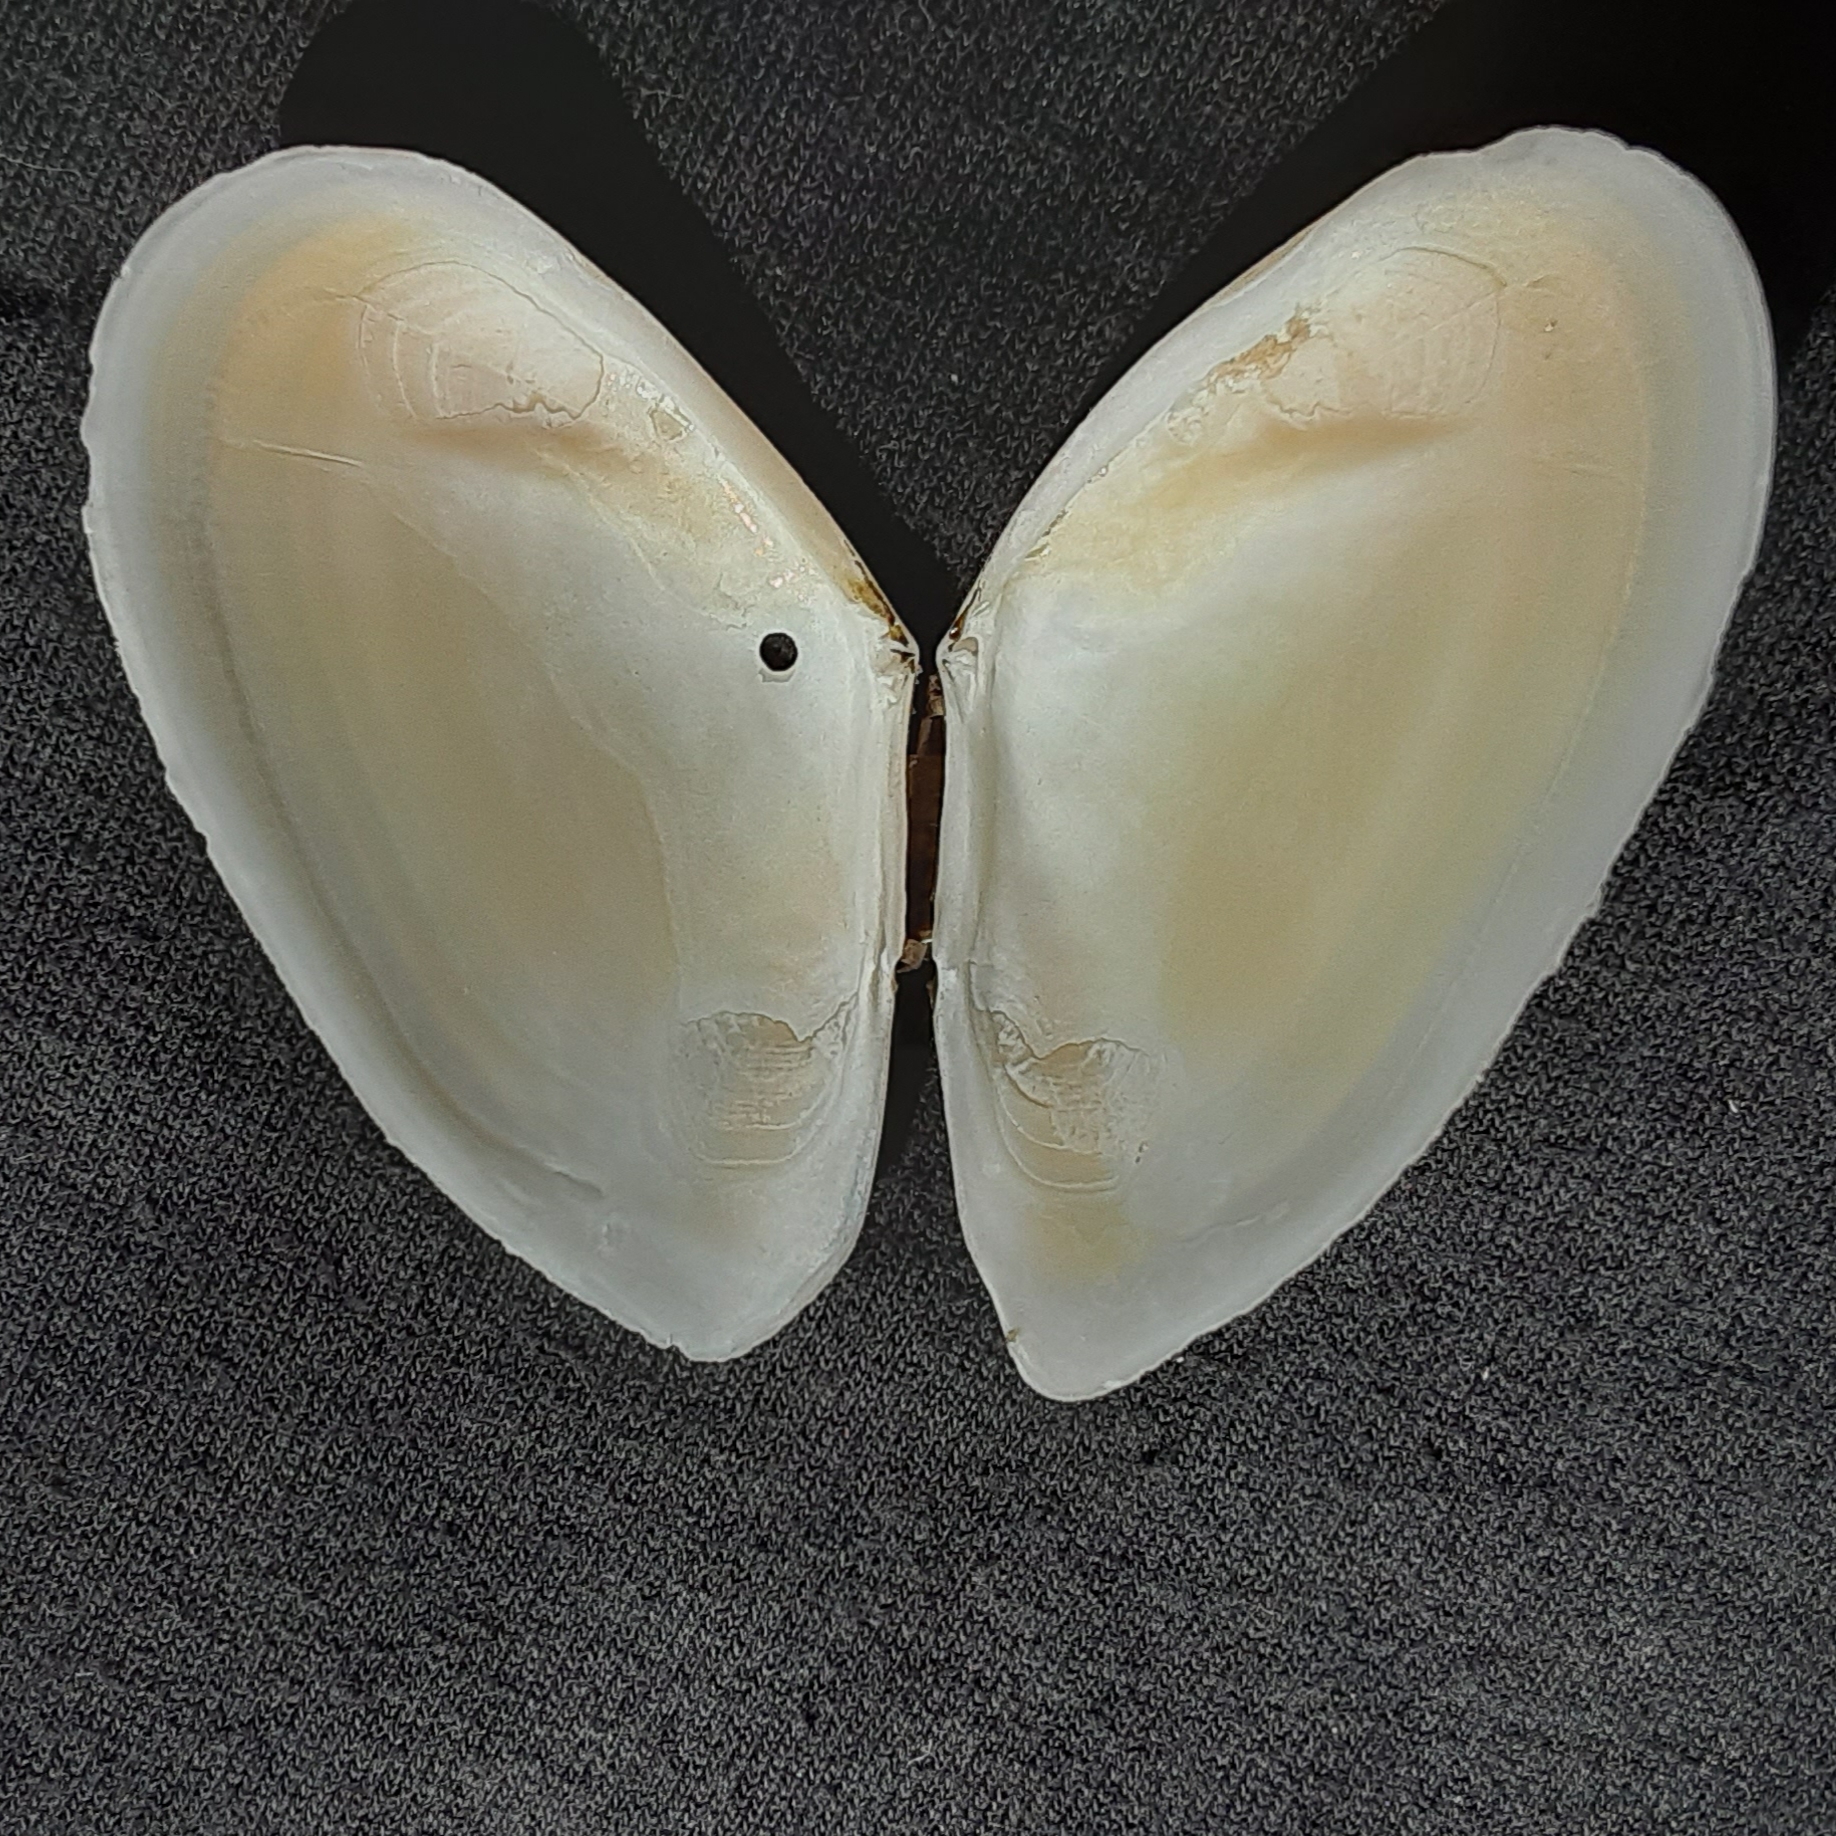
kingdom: Animalia
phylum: Mollusca
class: Bivalvia
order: Cardiida
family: Tellinidae
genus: Eurytellina
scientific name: Eurytellina alternata
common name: Alternate tellin
